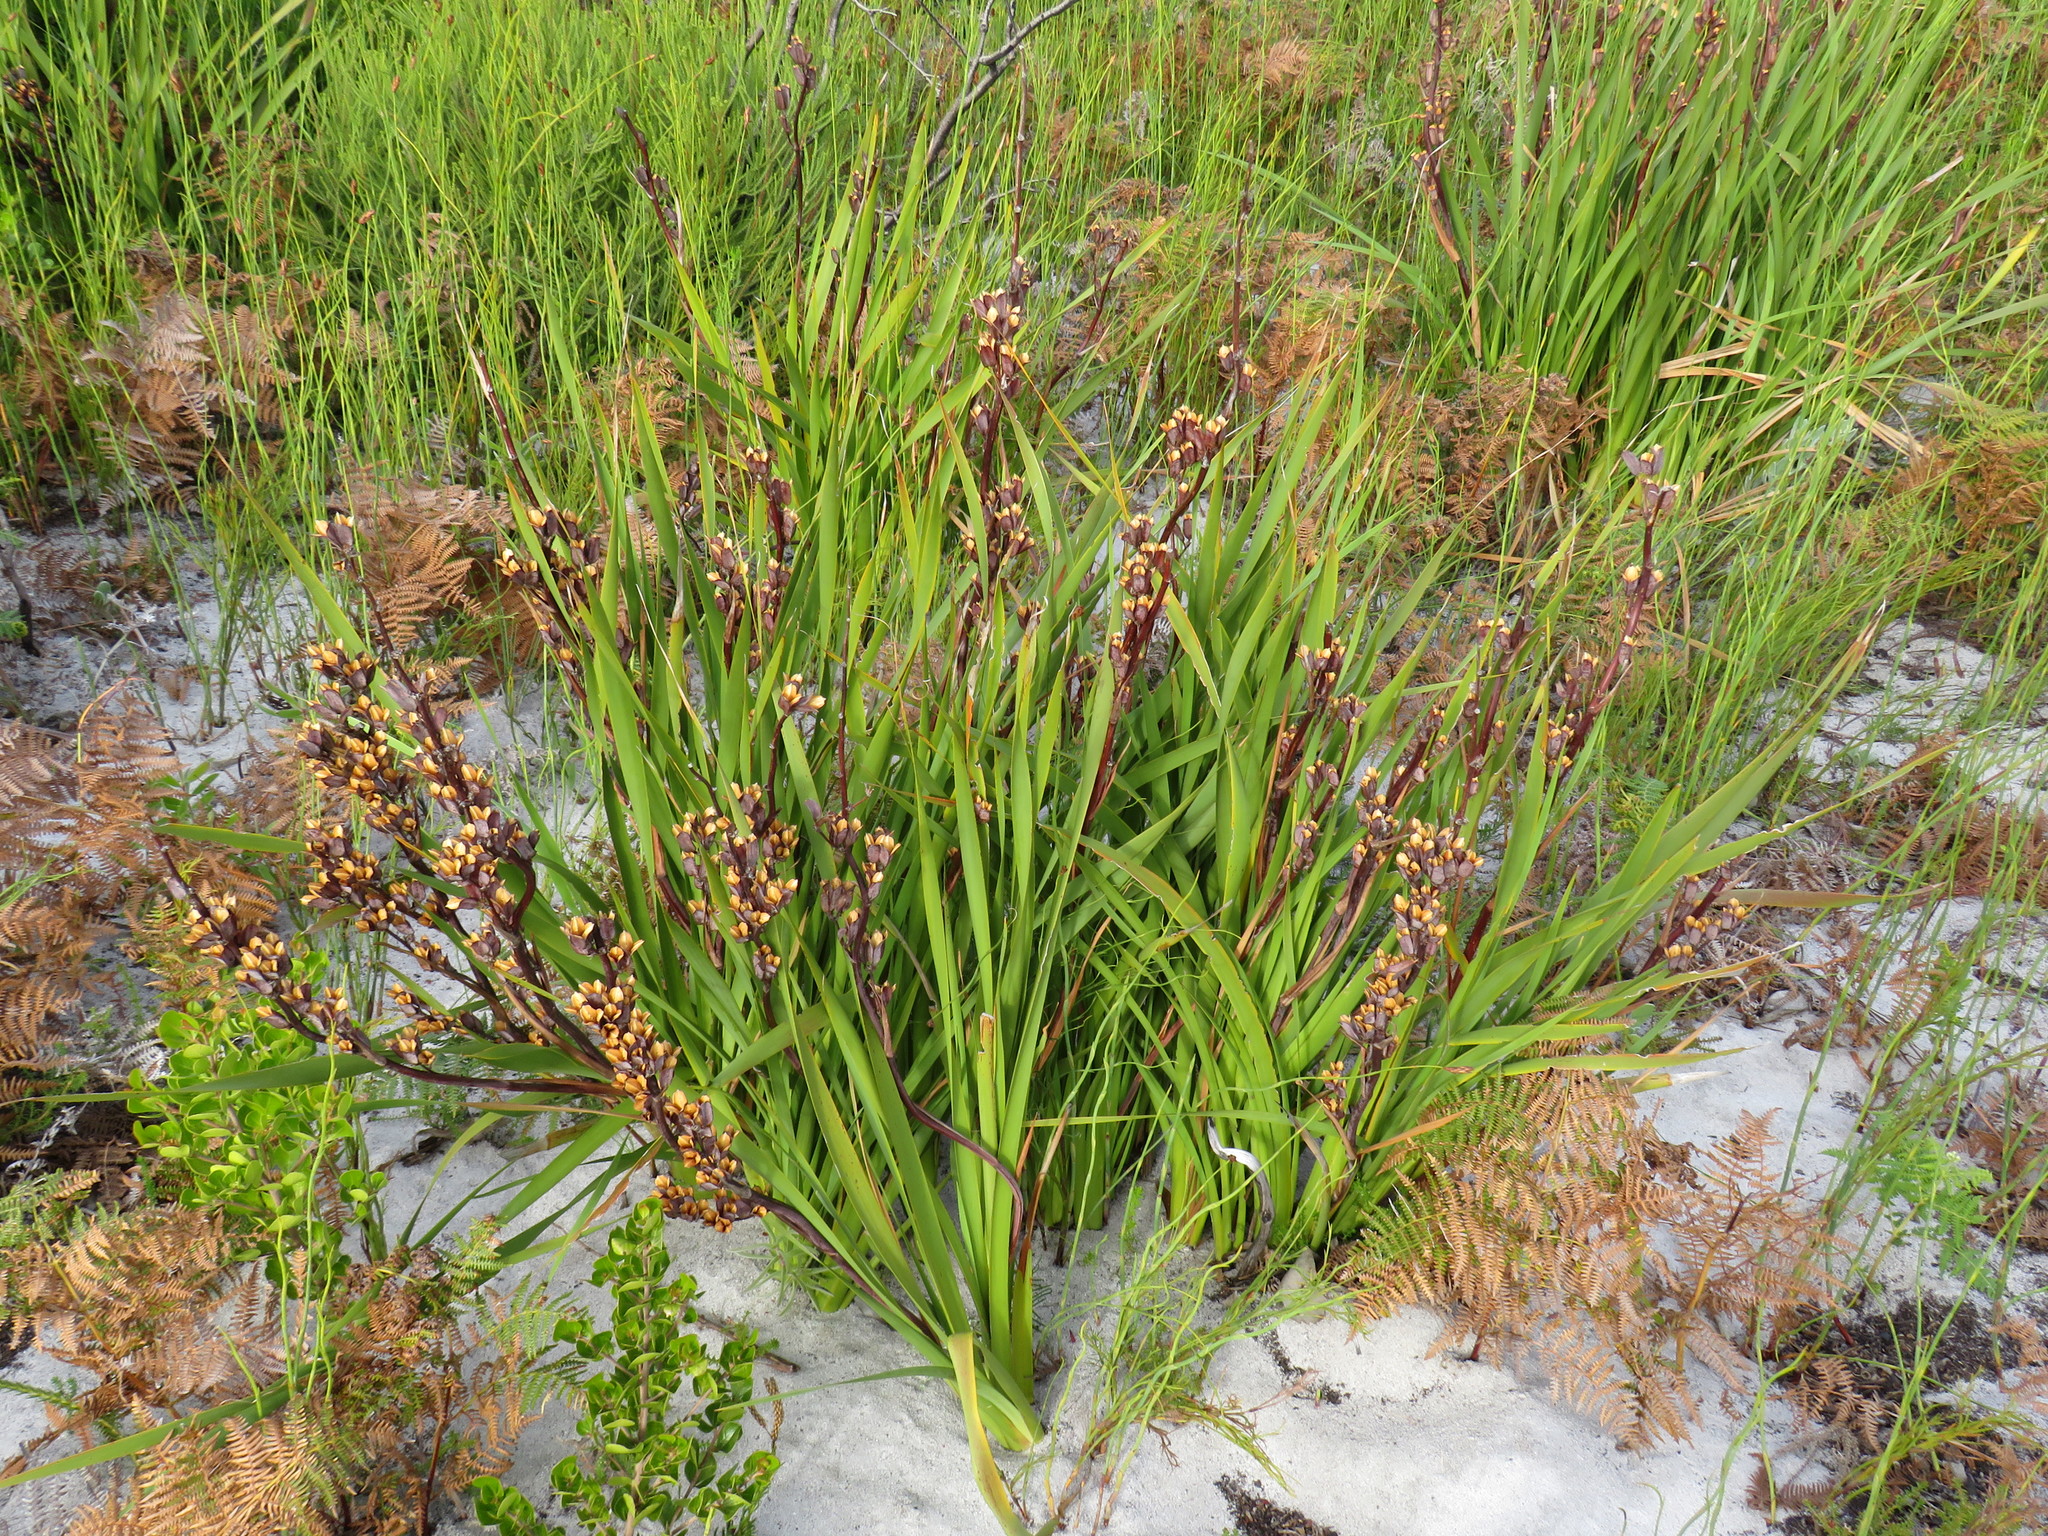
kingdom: Plantae
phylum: Tracheophyta
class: Liliopsida
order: Asparagales
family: Iridaceae
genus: Aristea
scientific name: Aristea bakeri
